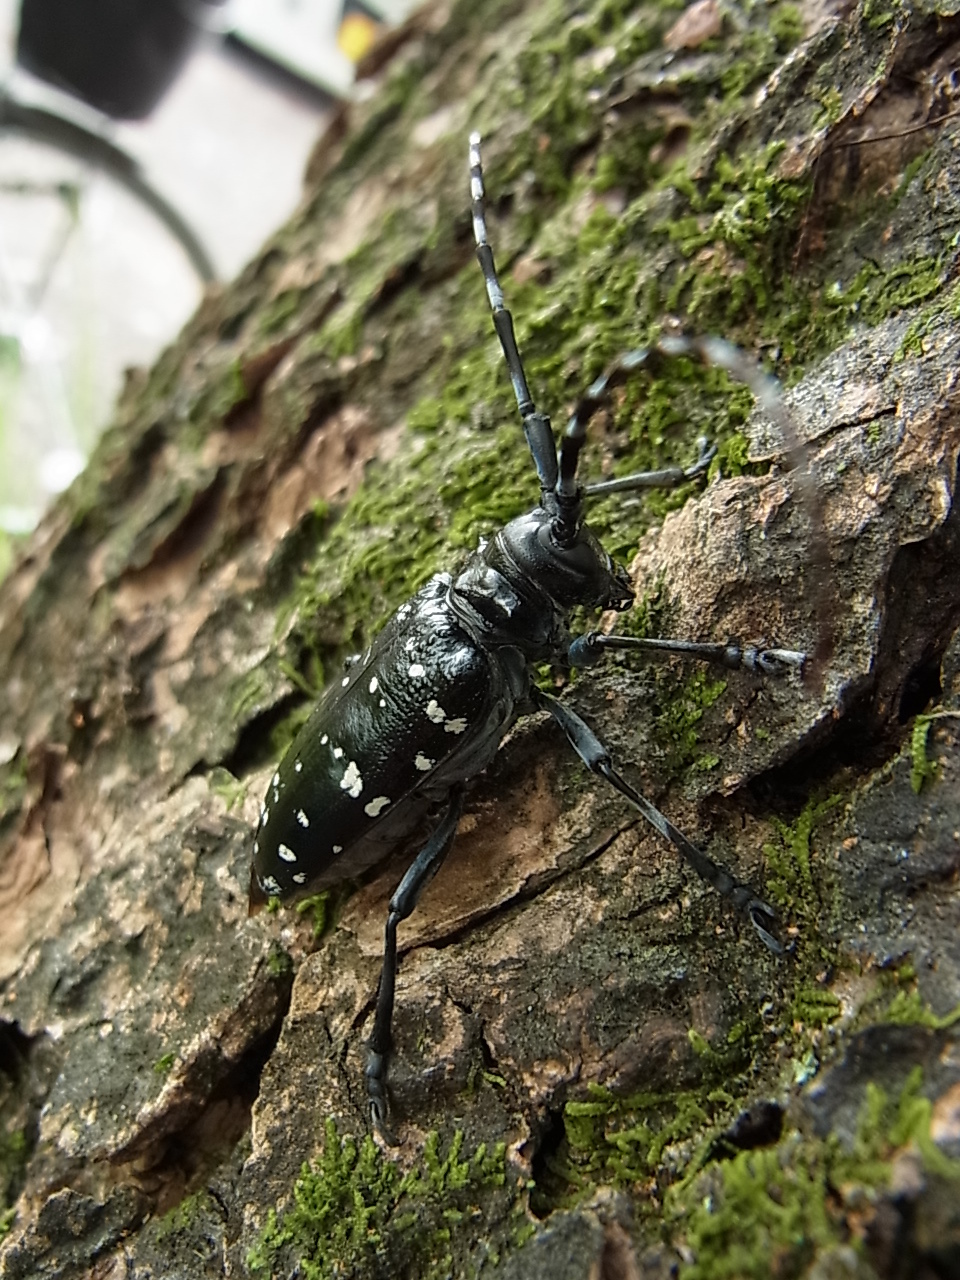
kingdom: Animalia
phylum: Arthropoda
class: Insecta
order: Coleoptera
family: Cerambycidae
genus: Anoplophora
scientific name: Anoplophora chinensis
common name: Citrus longhorned beetle
